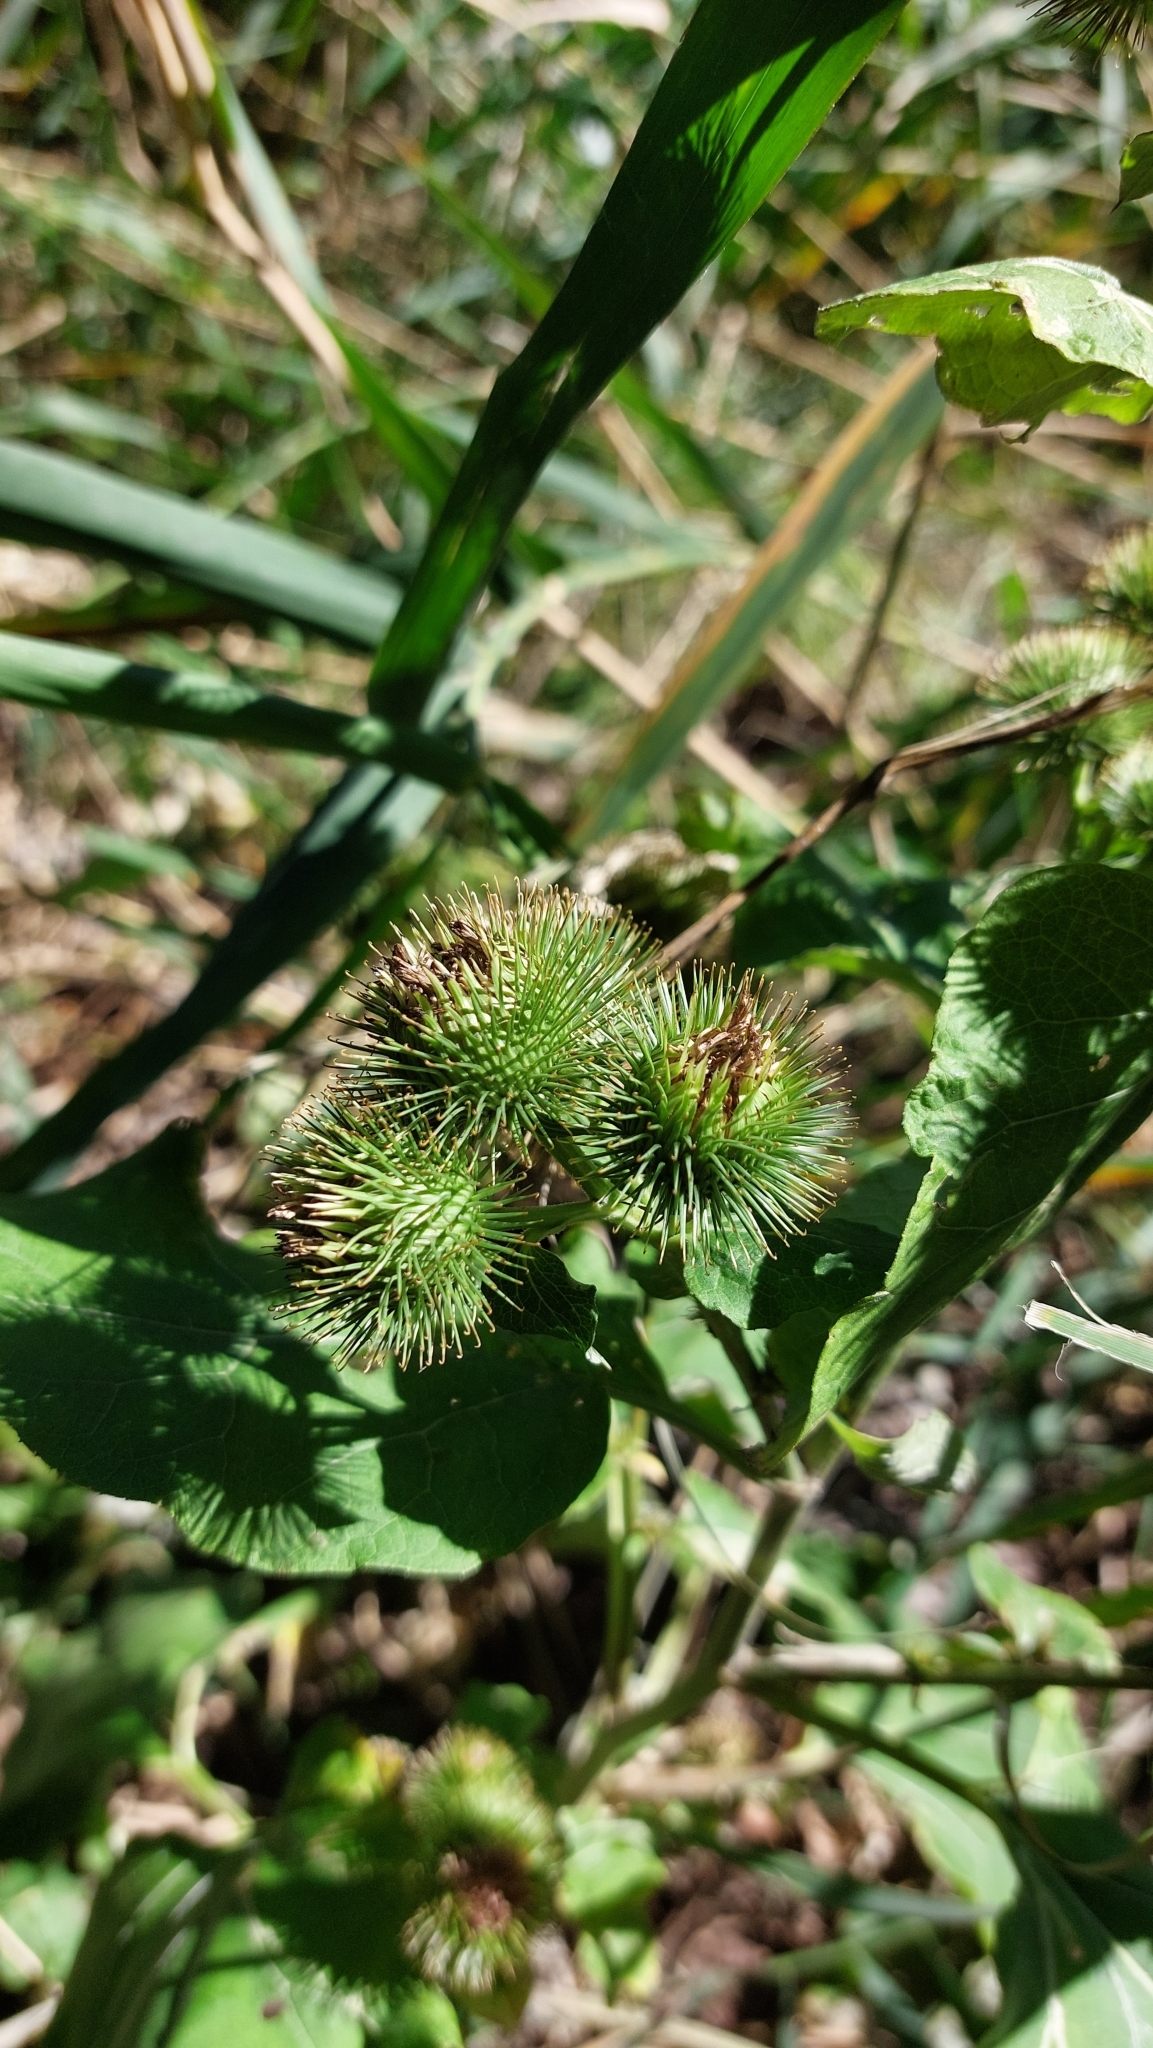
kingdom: Plantae
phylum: Tracheophyta
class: Magnoliopsida
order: Asterales
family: Asteraceae
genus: Arctium
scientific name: Arctium lappa
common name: Greater burdock
